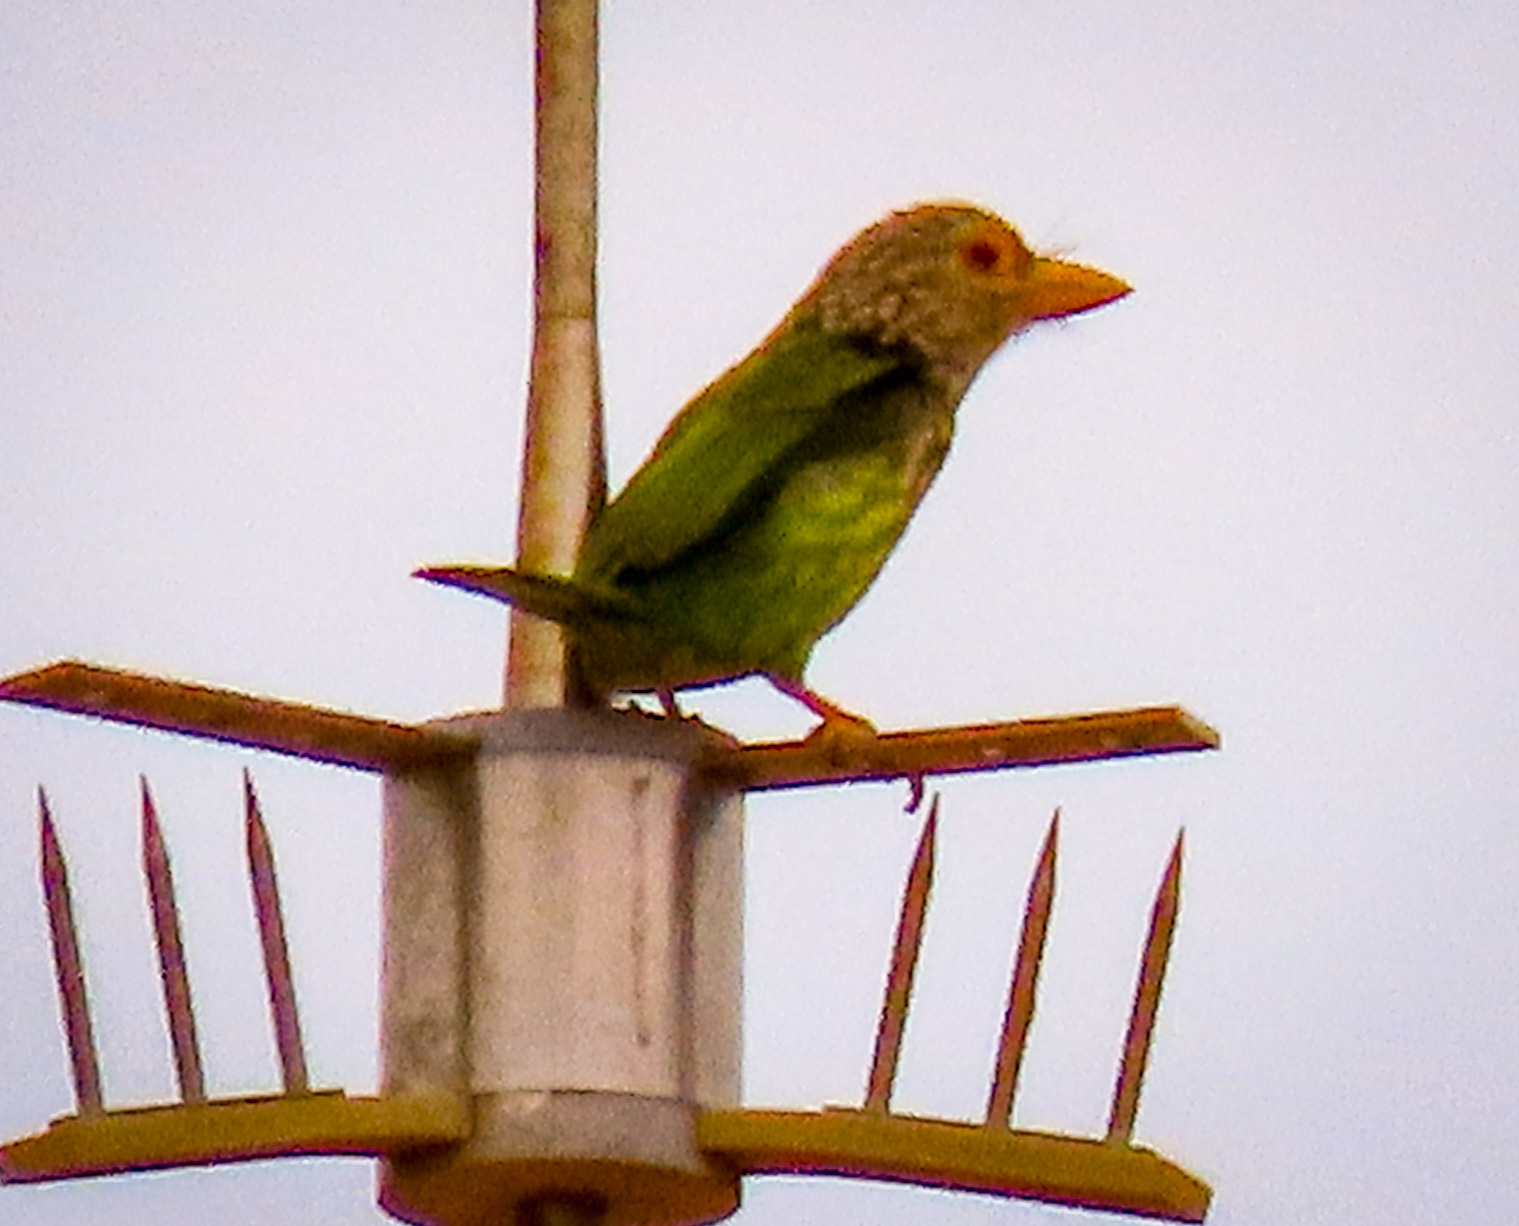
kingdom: Animalia
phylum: Chordata
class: Aves
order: Piciformes
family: Megalaimidae
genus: Psilopogon
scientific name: Psilopogon lineatus
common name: Lineated barbet
